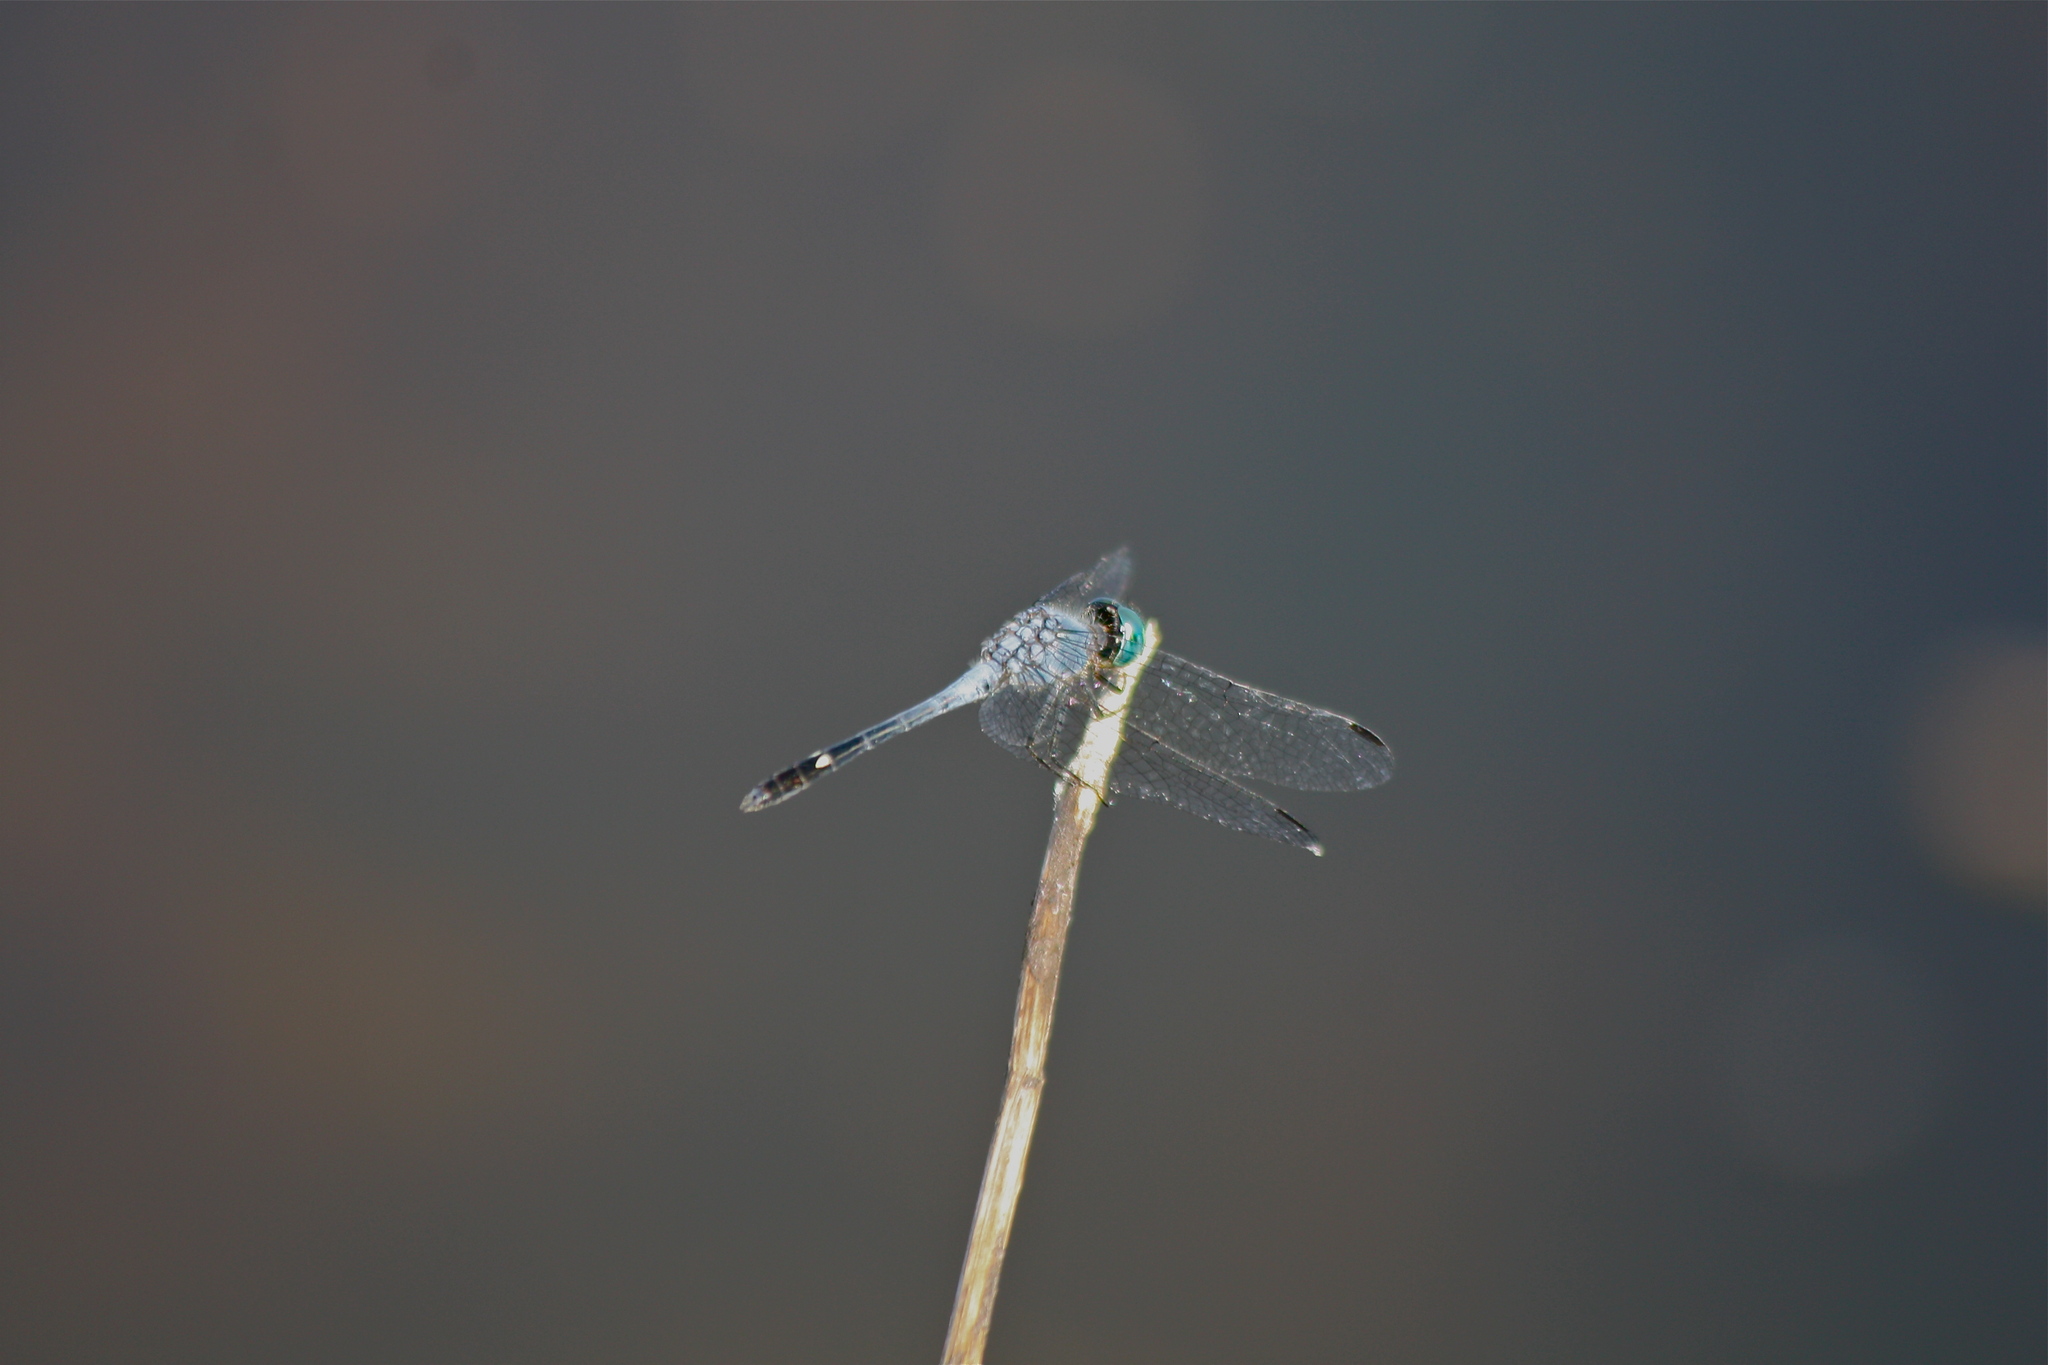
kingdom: Animalia
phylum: Arthropoda
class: Insecta
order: Odonata
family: Libellulidae
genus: Micrathyria
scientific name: Micrathyria aequalis
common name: Spot-tailed dasher
